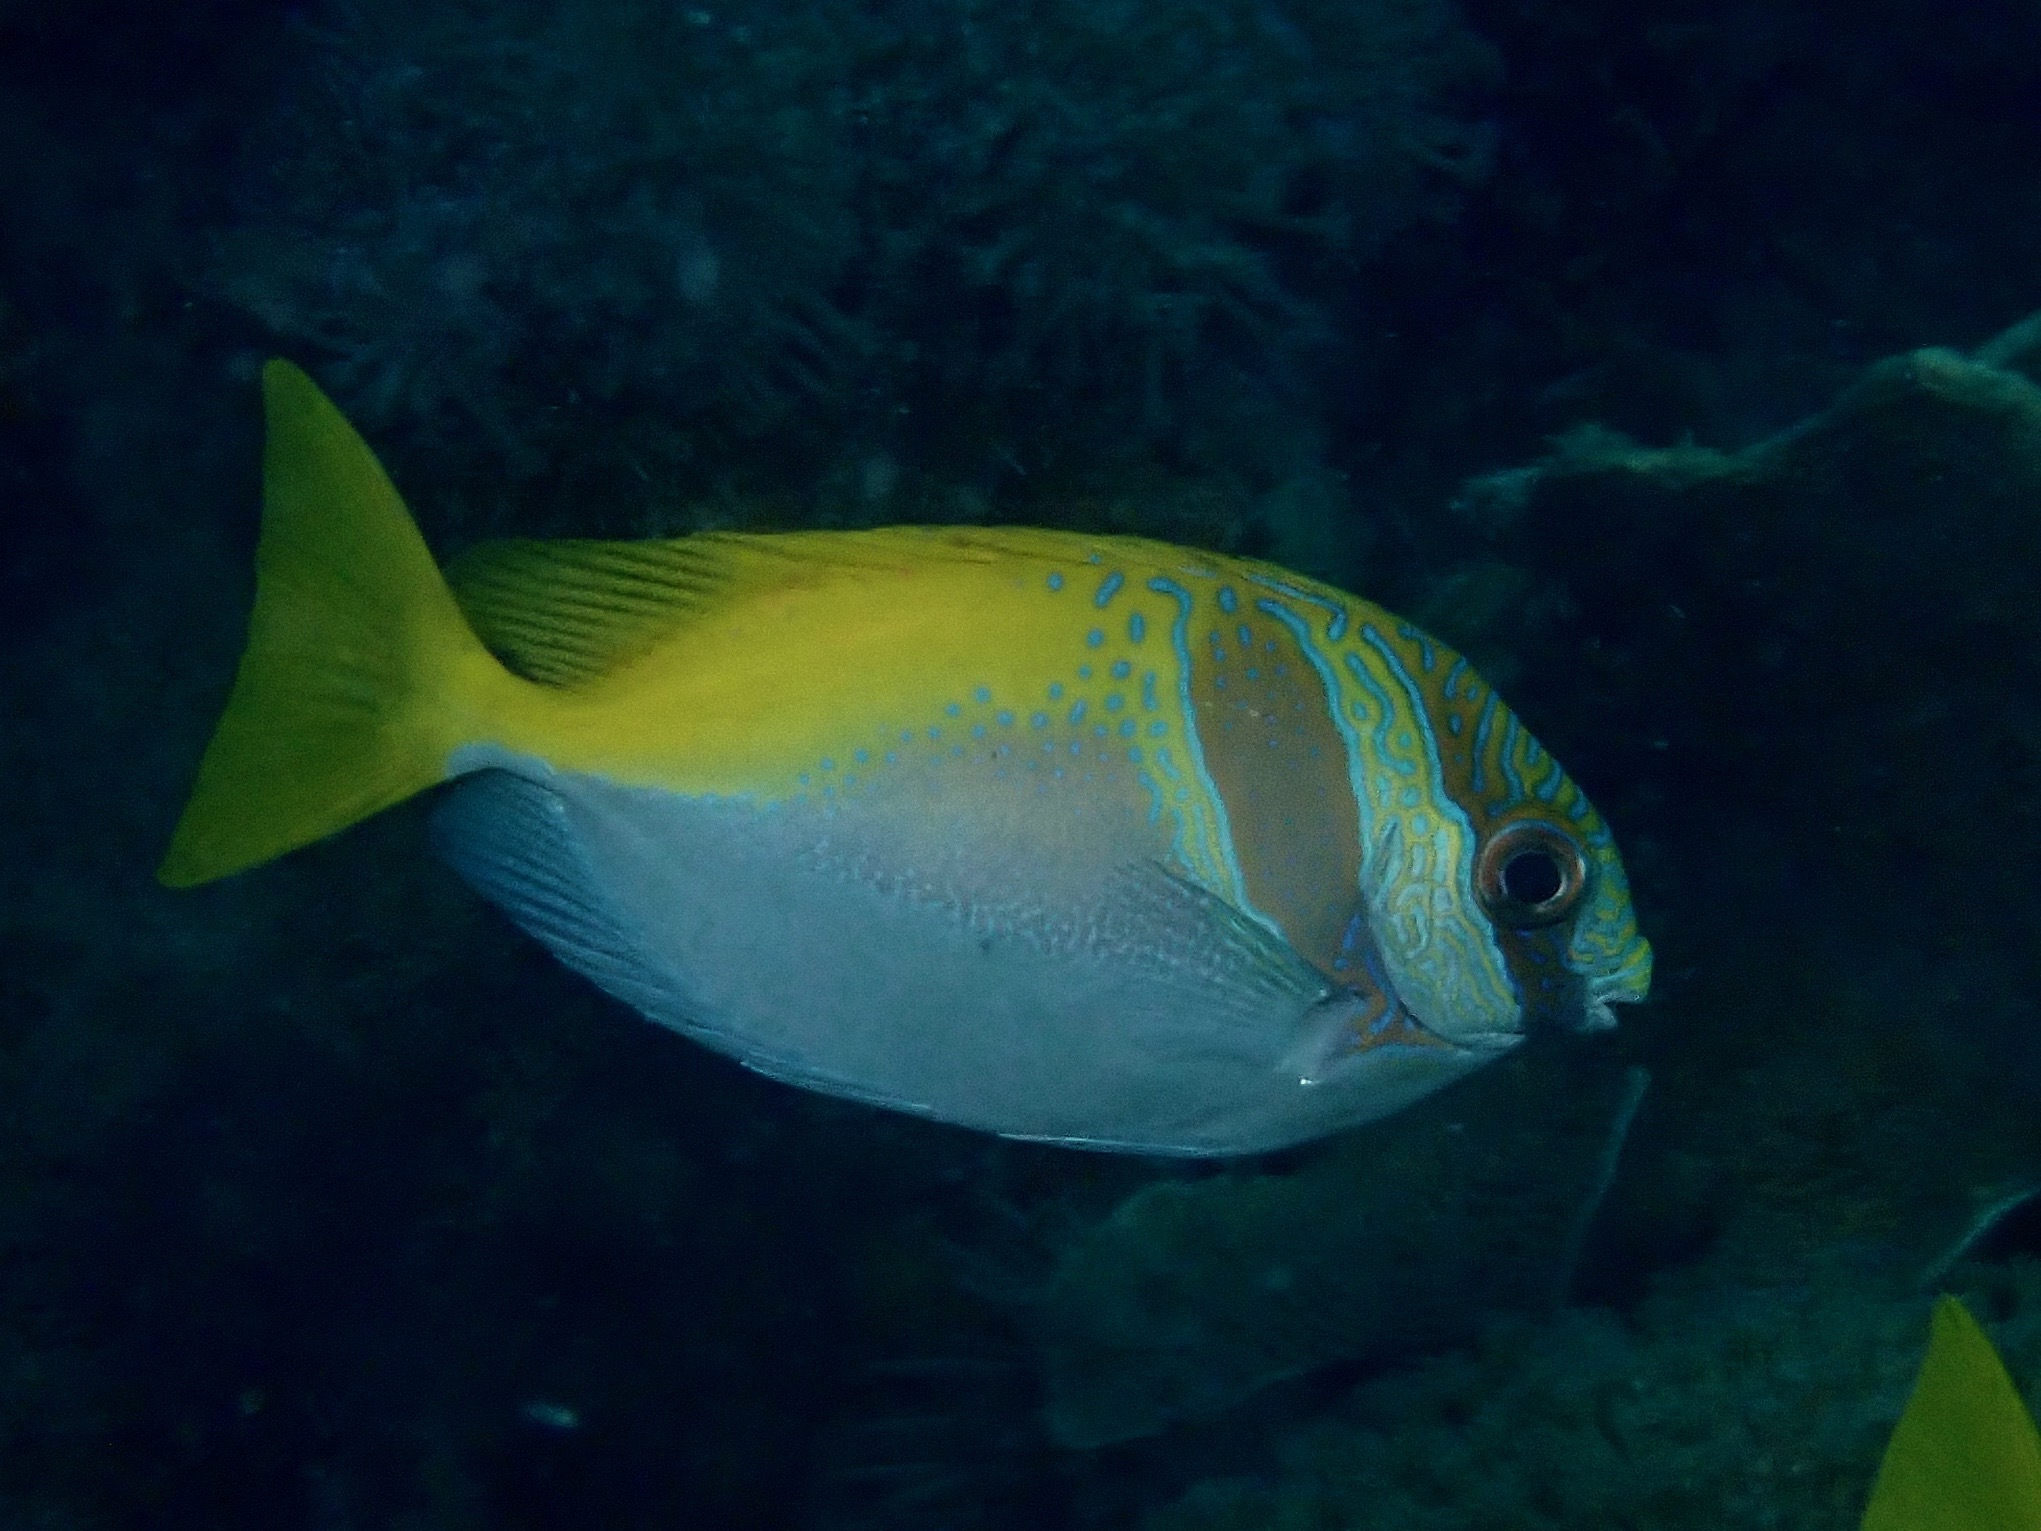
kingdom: Animalia
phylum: Chordata
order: Perciformes
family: Siganidae
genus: Siganus
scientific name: Siganus virgatus
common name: Barhead spinefoot
